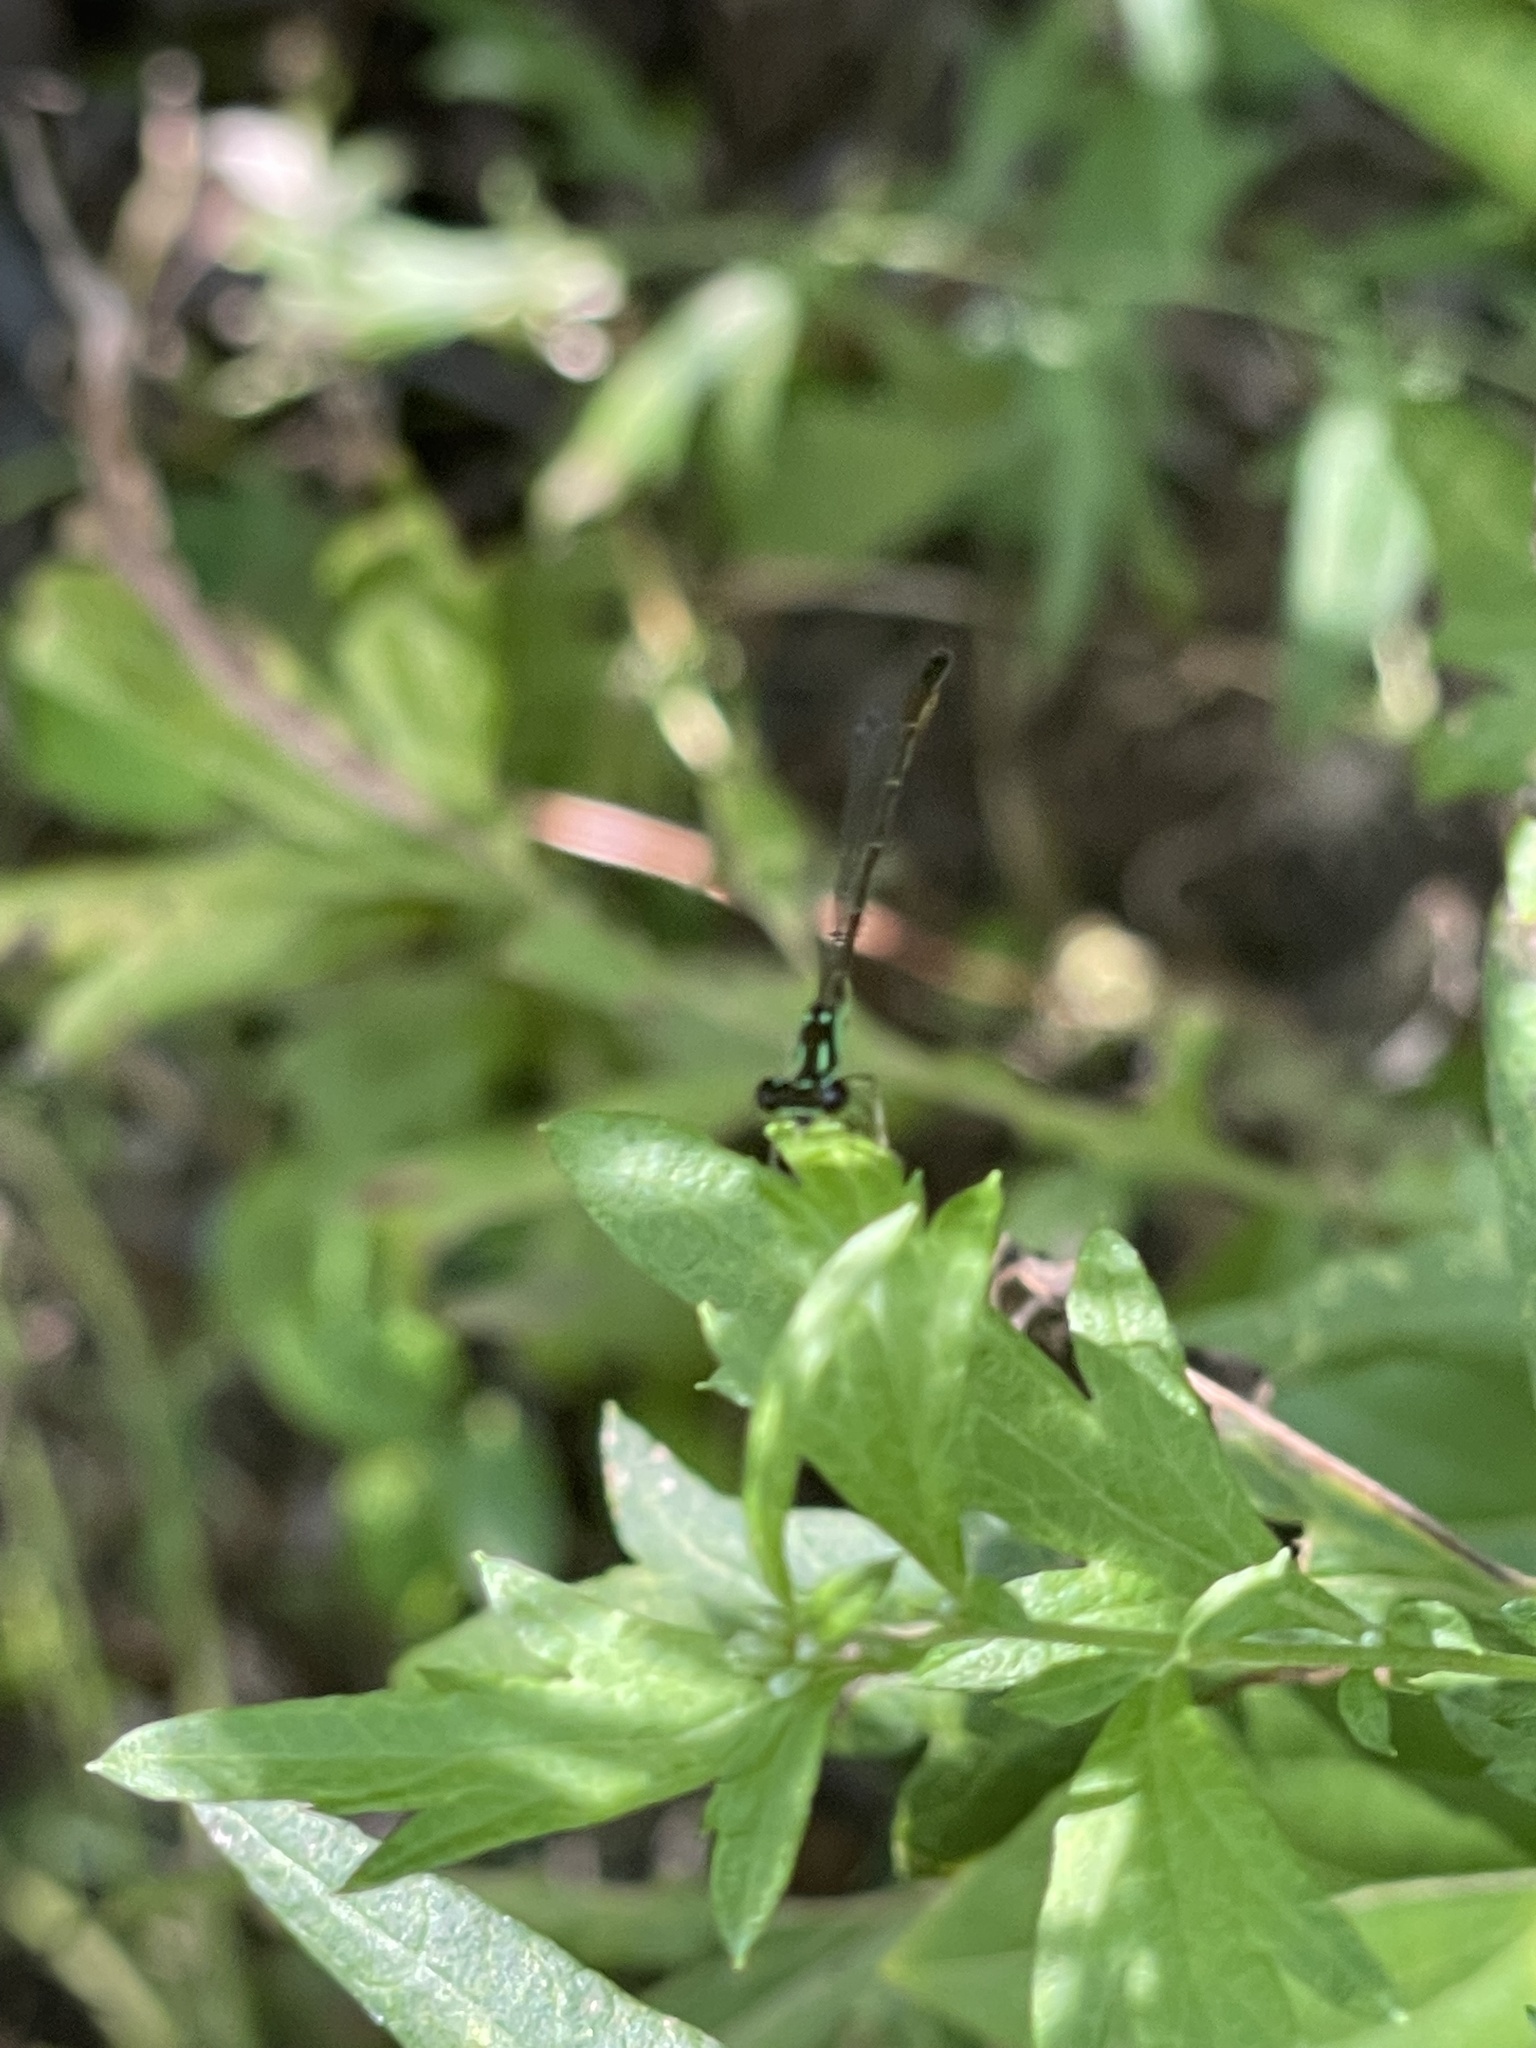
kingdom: Animalia
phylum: Arthropoda
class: Insecta
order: Odonata
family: Coenagrionidae
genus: Ischnura
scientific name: Ischnura posita
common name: Fragile forktail
